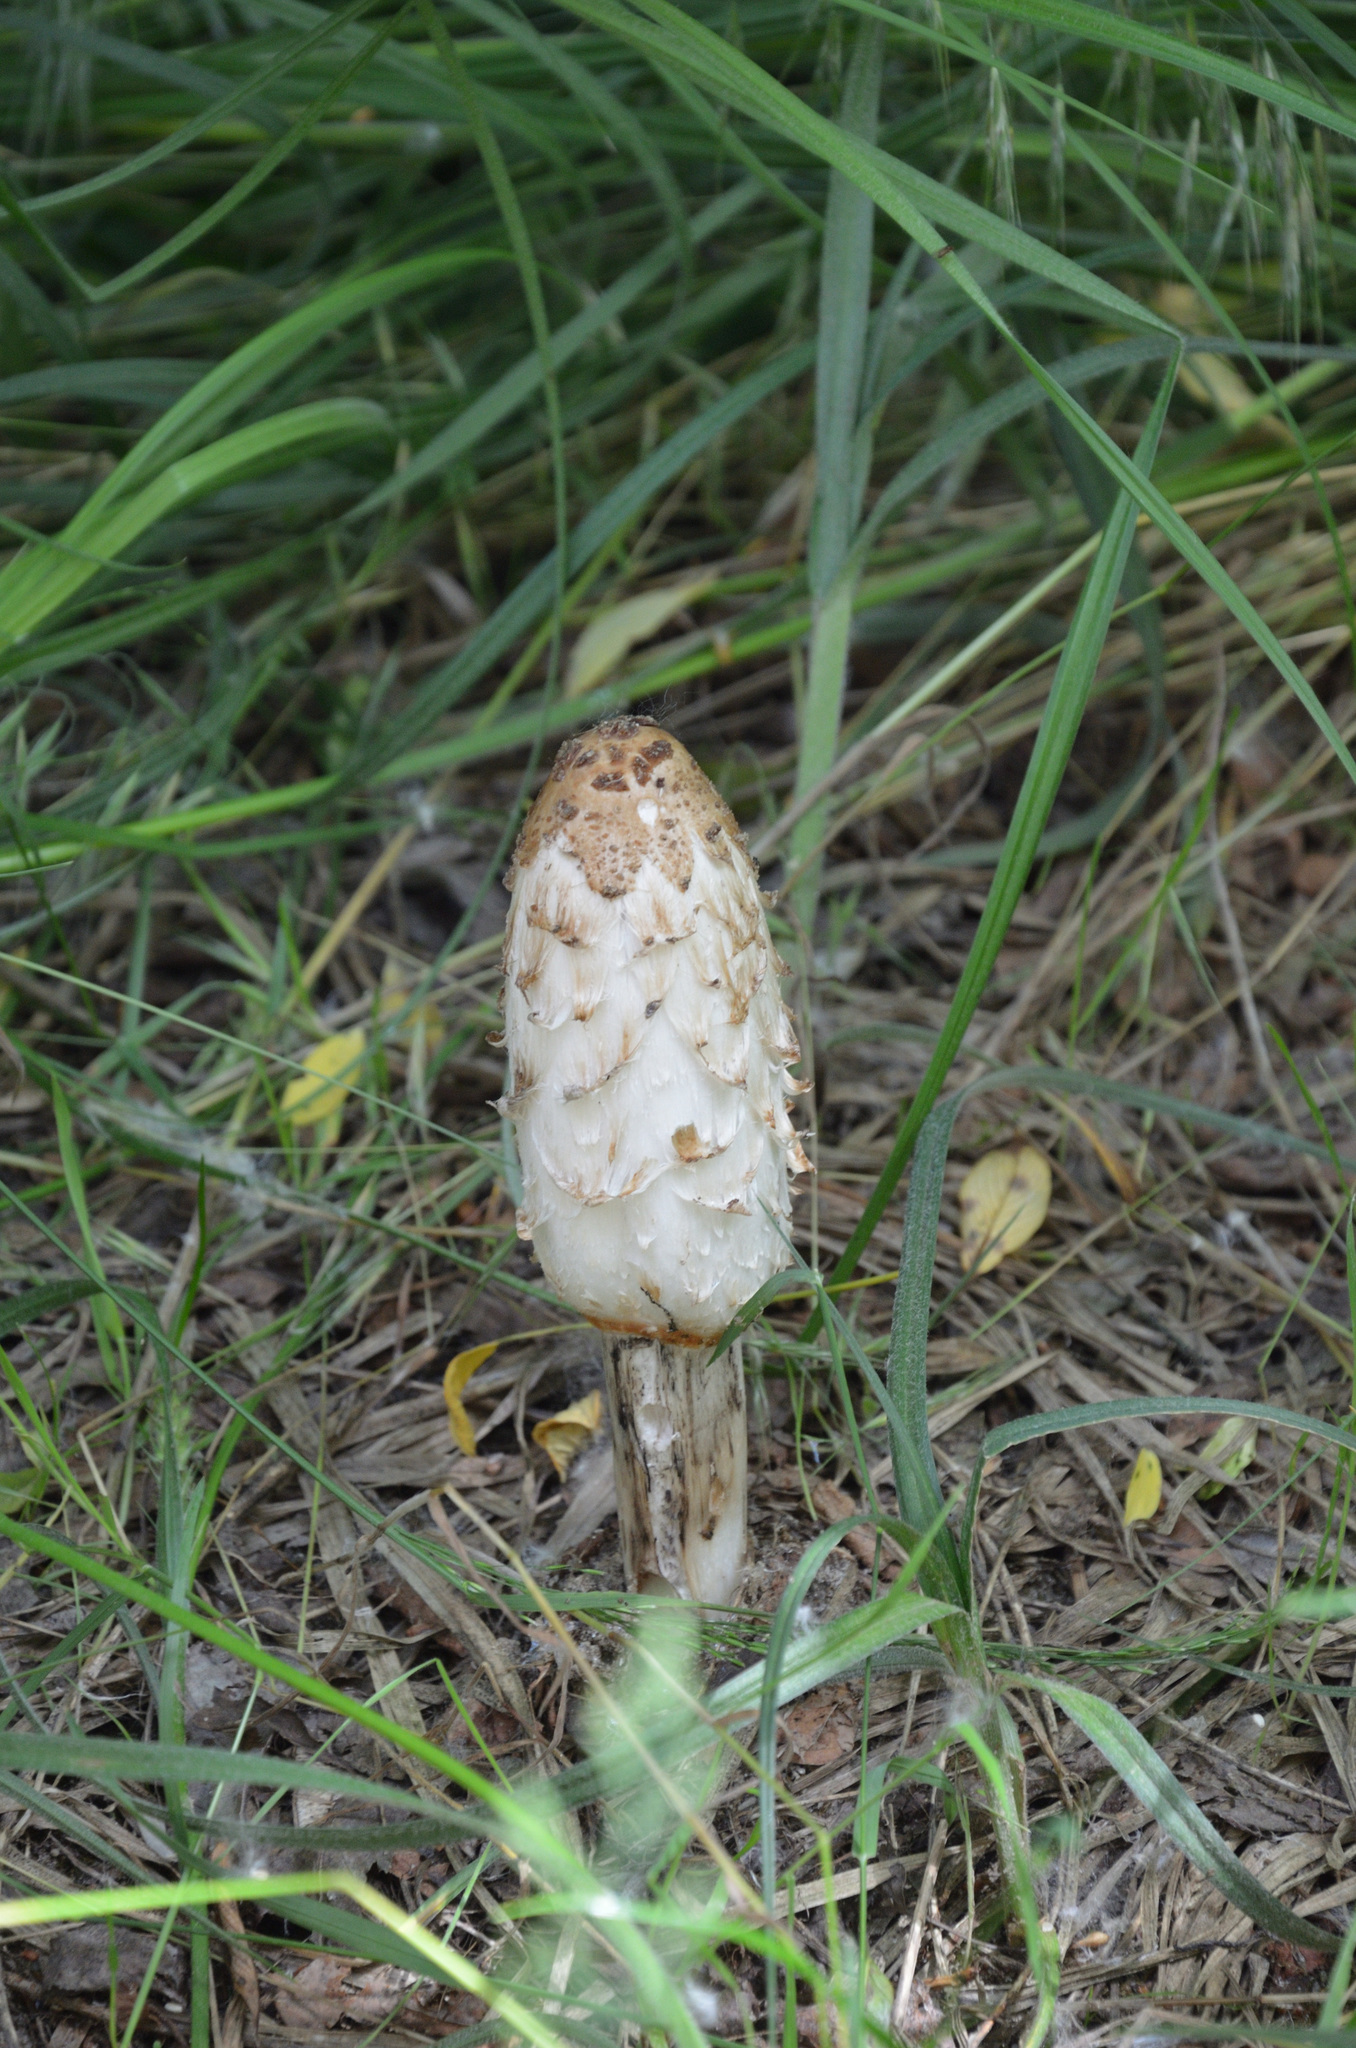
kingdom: Fungi
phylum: Basidiomycota
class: Agaricomycetes
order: Agaricales
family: Agaricaceae
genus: Coprinus
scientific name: Coprinus comatus
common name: Lawyer's wig
